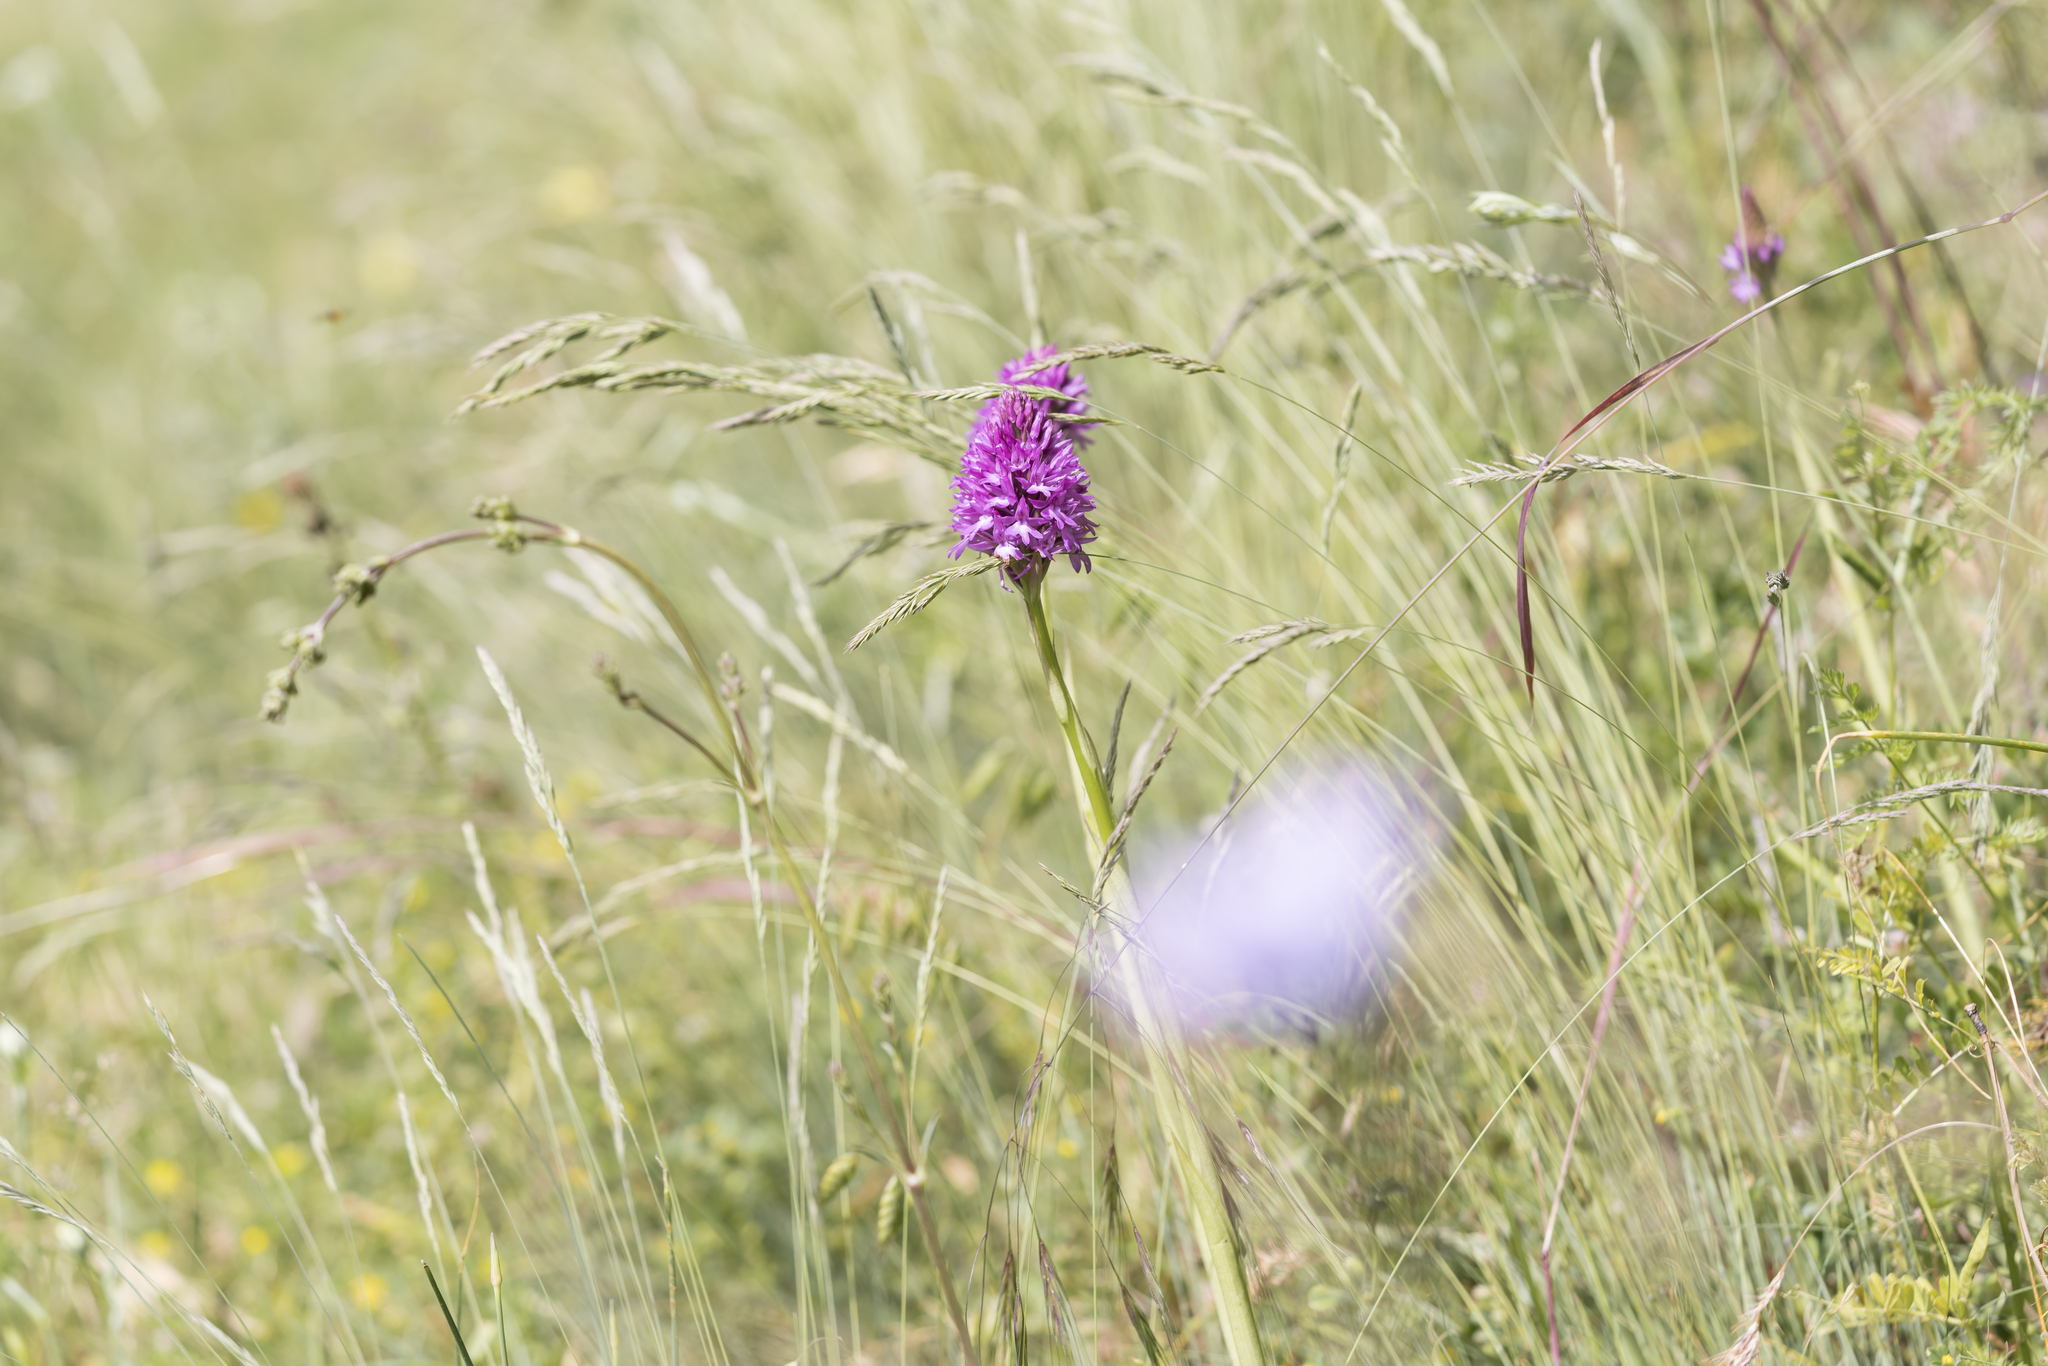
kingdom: Plantae
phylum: Tracheophyta
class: Liliopsida
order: Asparagales
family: Orchidaceae
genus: Anacamptis
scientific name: Anacamptis pyramidalis
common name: Pyramidal orchid
